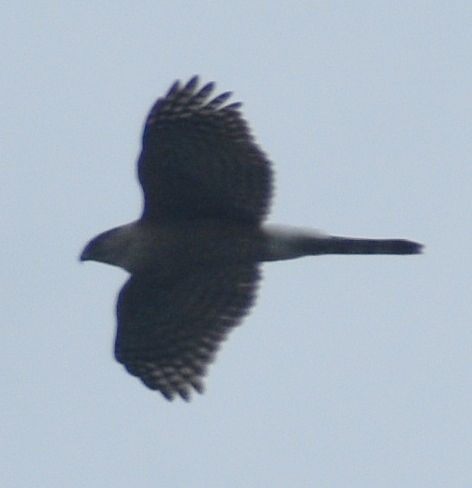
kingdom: Animalia
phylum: Chordata
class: Aves
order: Accipitriformes
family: Accipitridae
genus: Accipiter
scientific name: Accipiter cooperii
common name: Cooper's hawk
